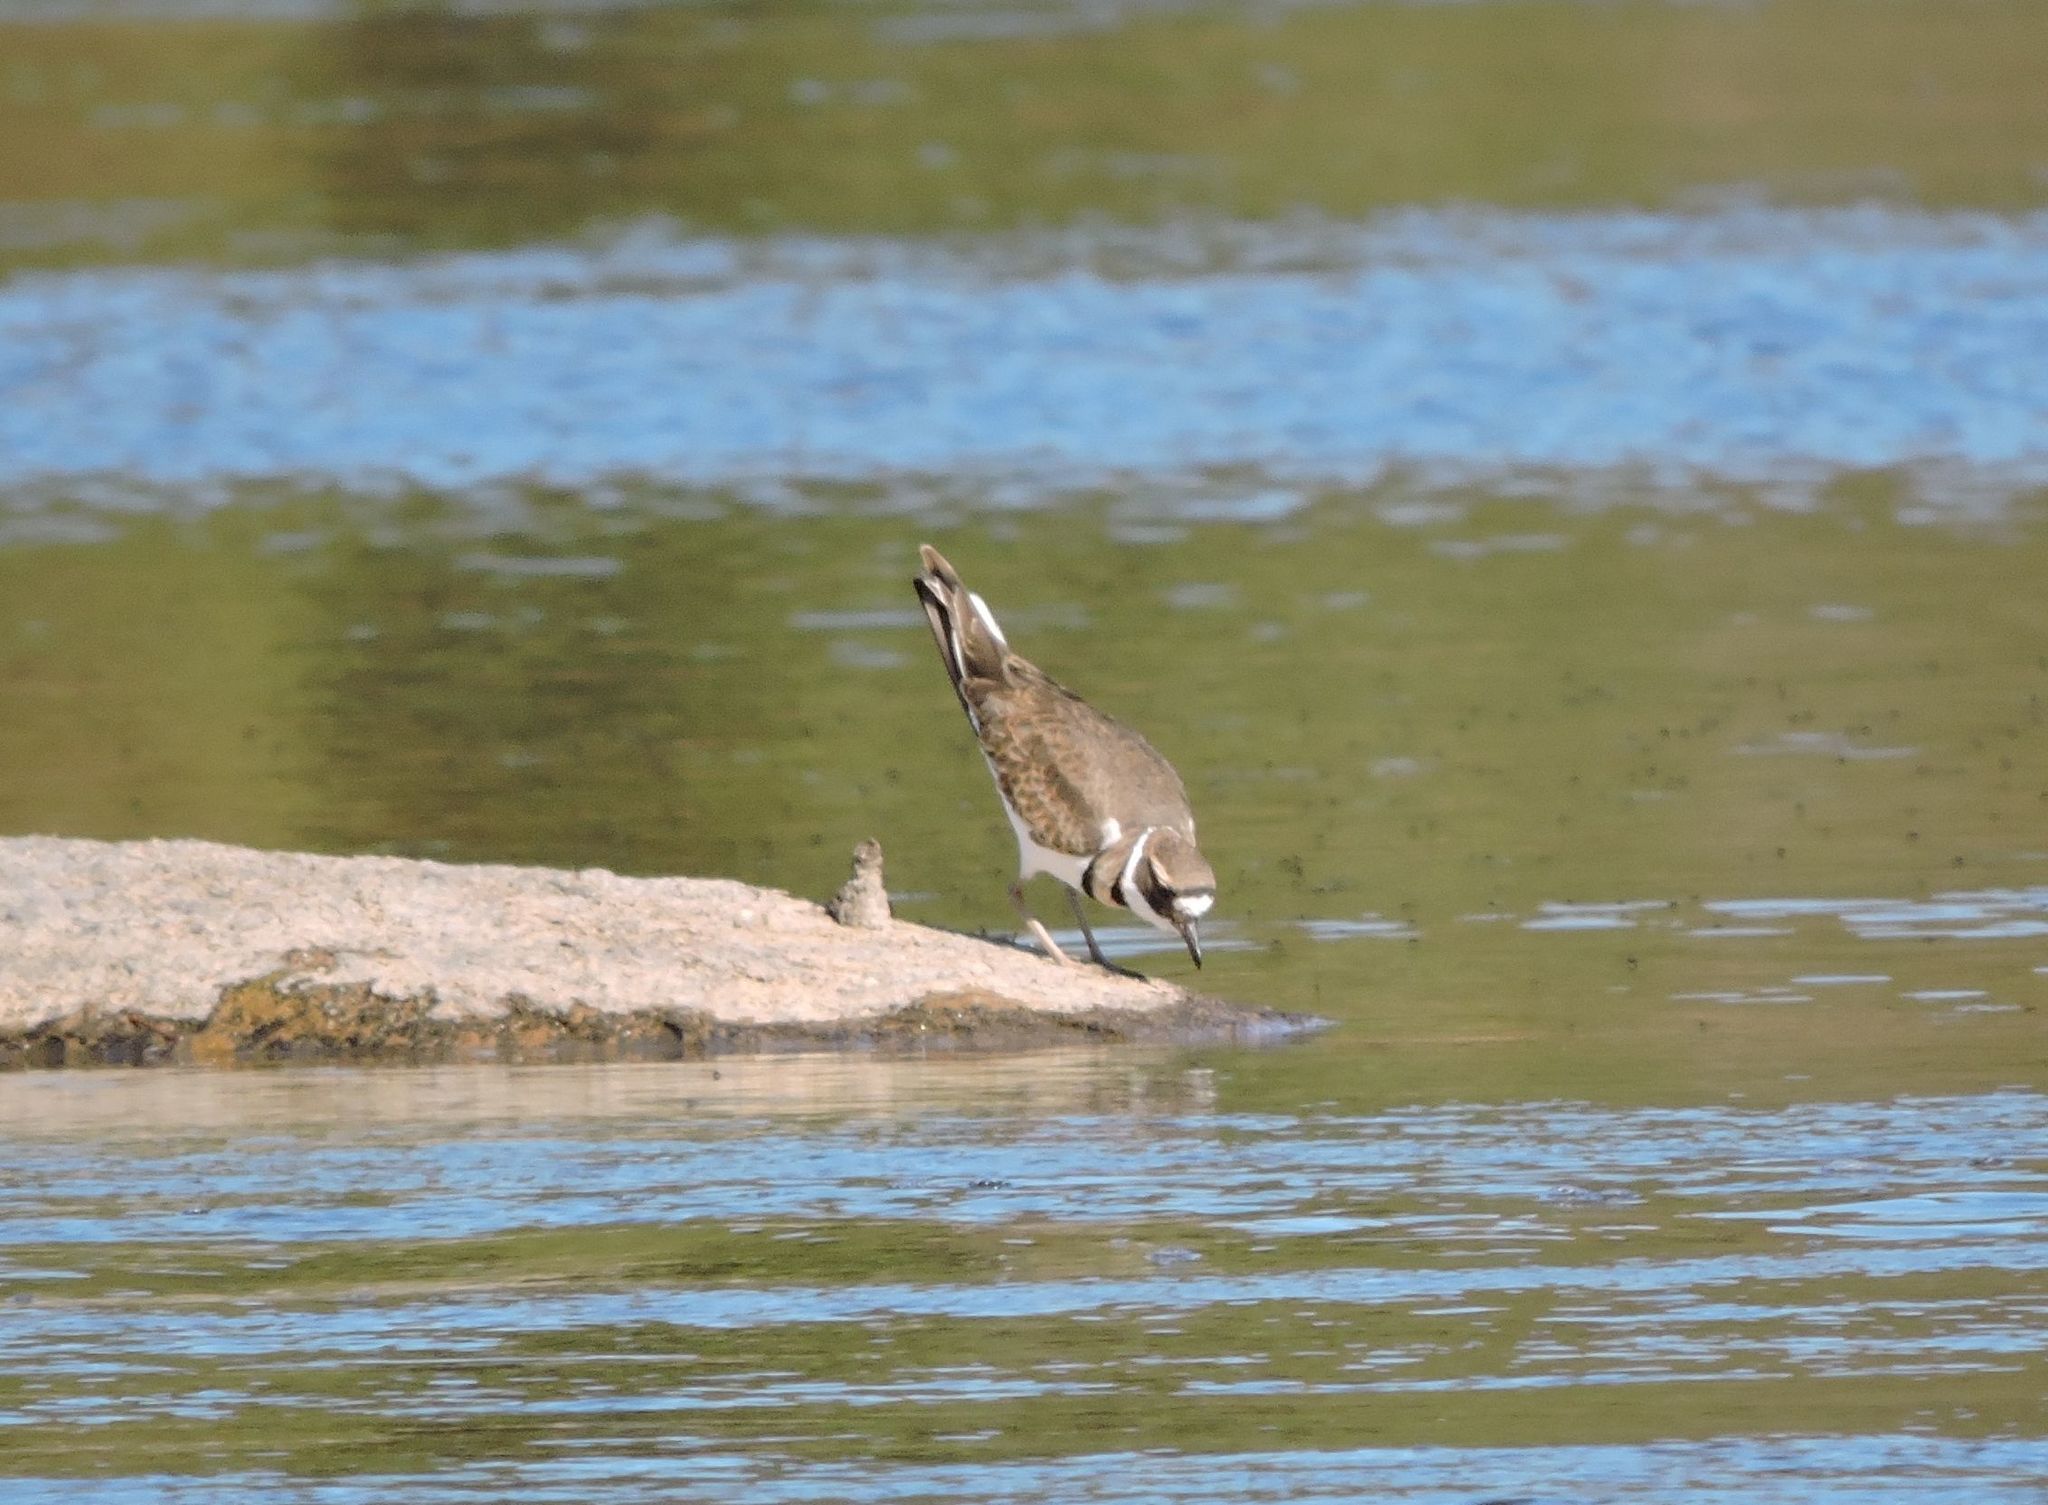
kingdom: Animalia
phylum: Chordata
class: Aves
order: Charadriiformes
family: Charadriidae
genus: Charadrius
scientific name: Charadrius vociferus
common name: Killdeer
